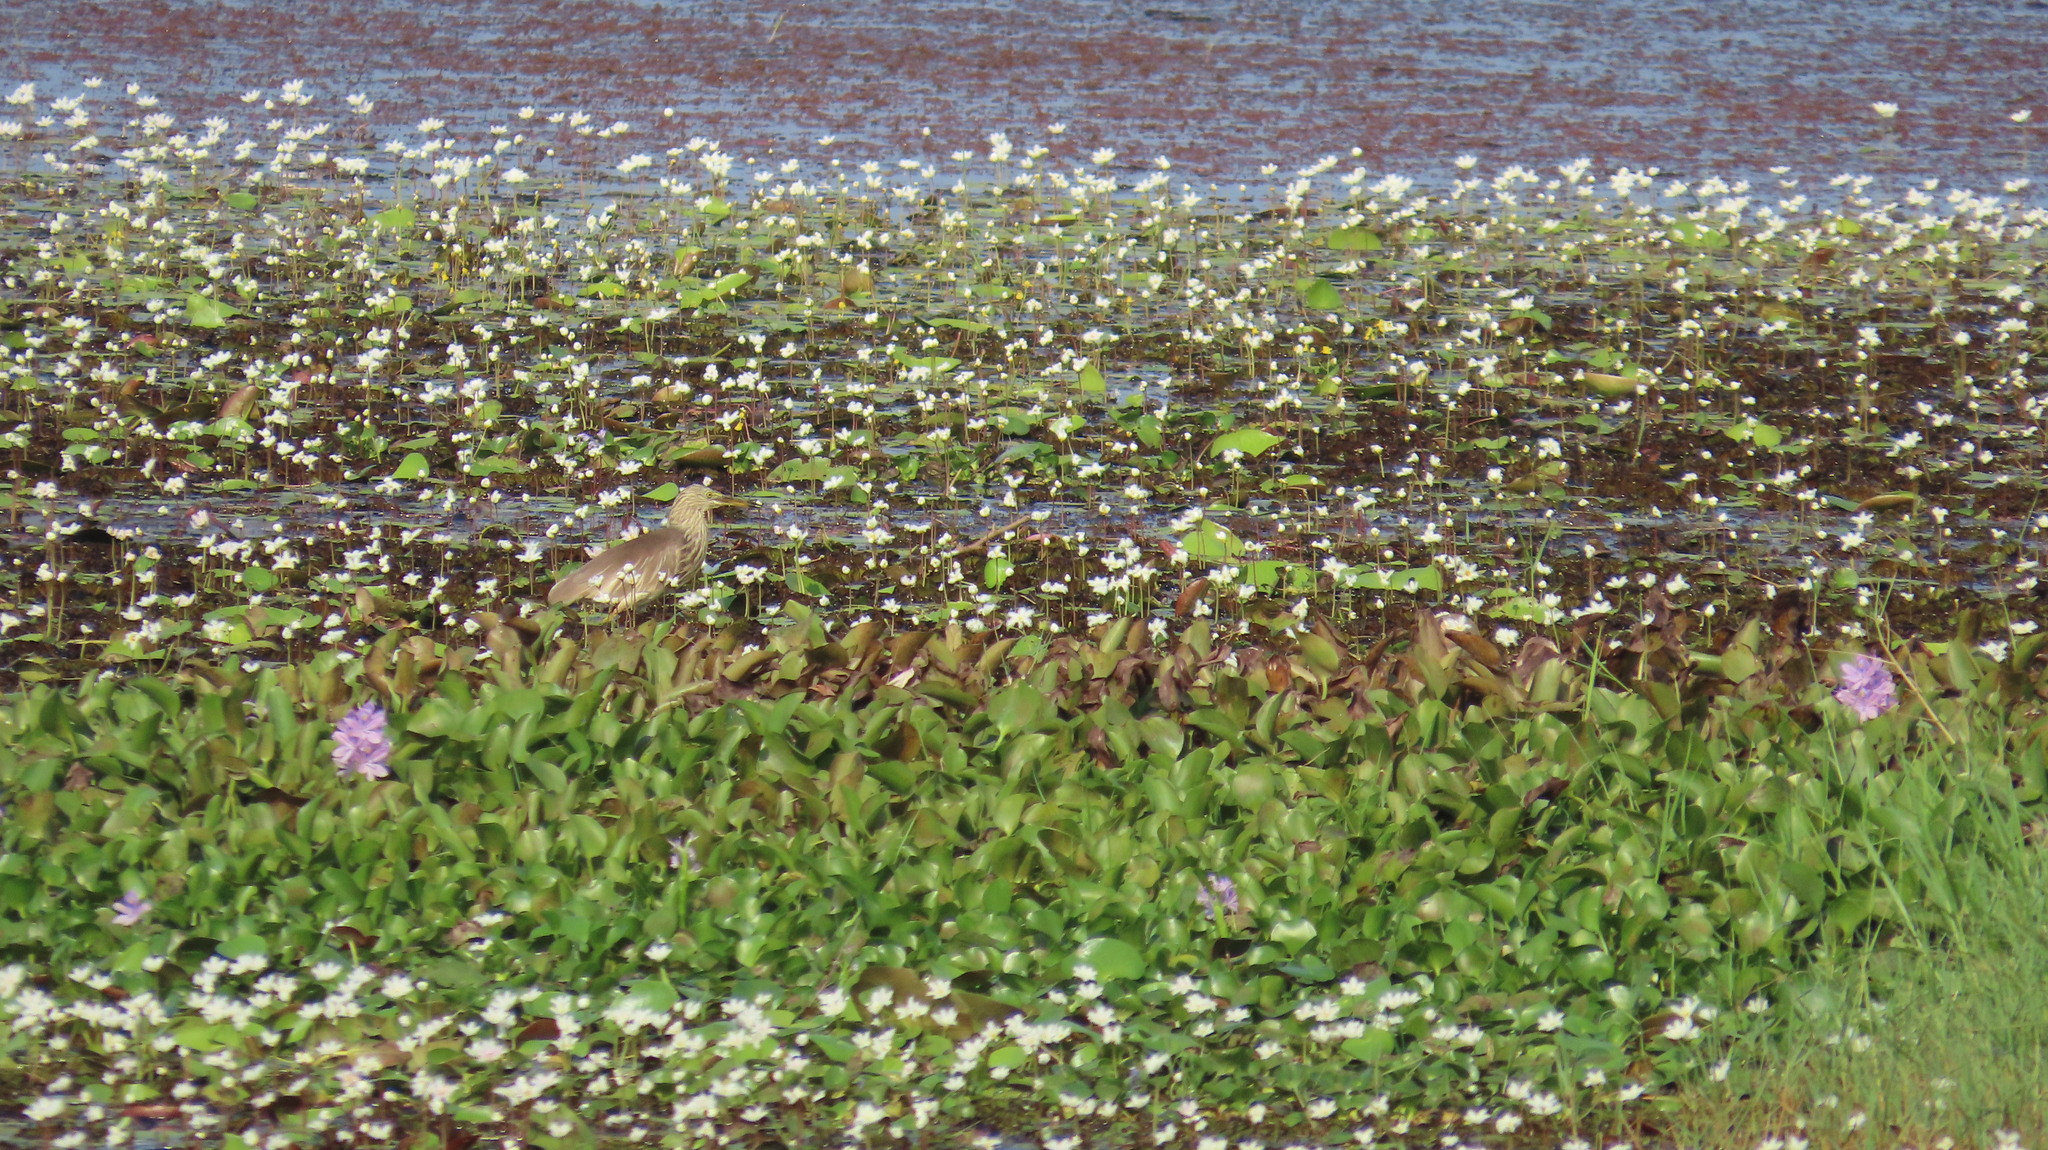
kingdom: Animalia
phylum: Chordata
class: Aves
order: Pelecaniformes
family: Ardeidae
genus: Ardeola
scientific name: Ardeola grayii
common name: Indian pond heron
